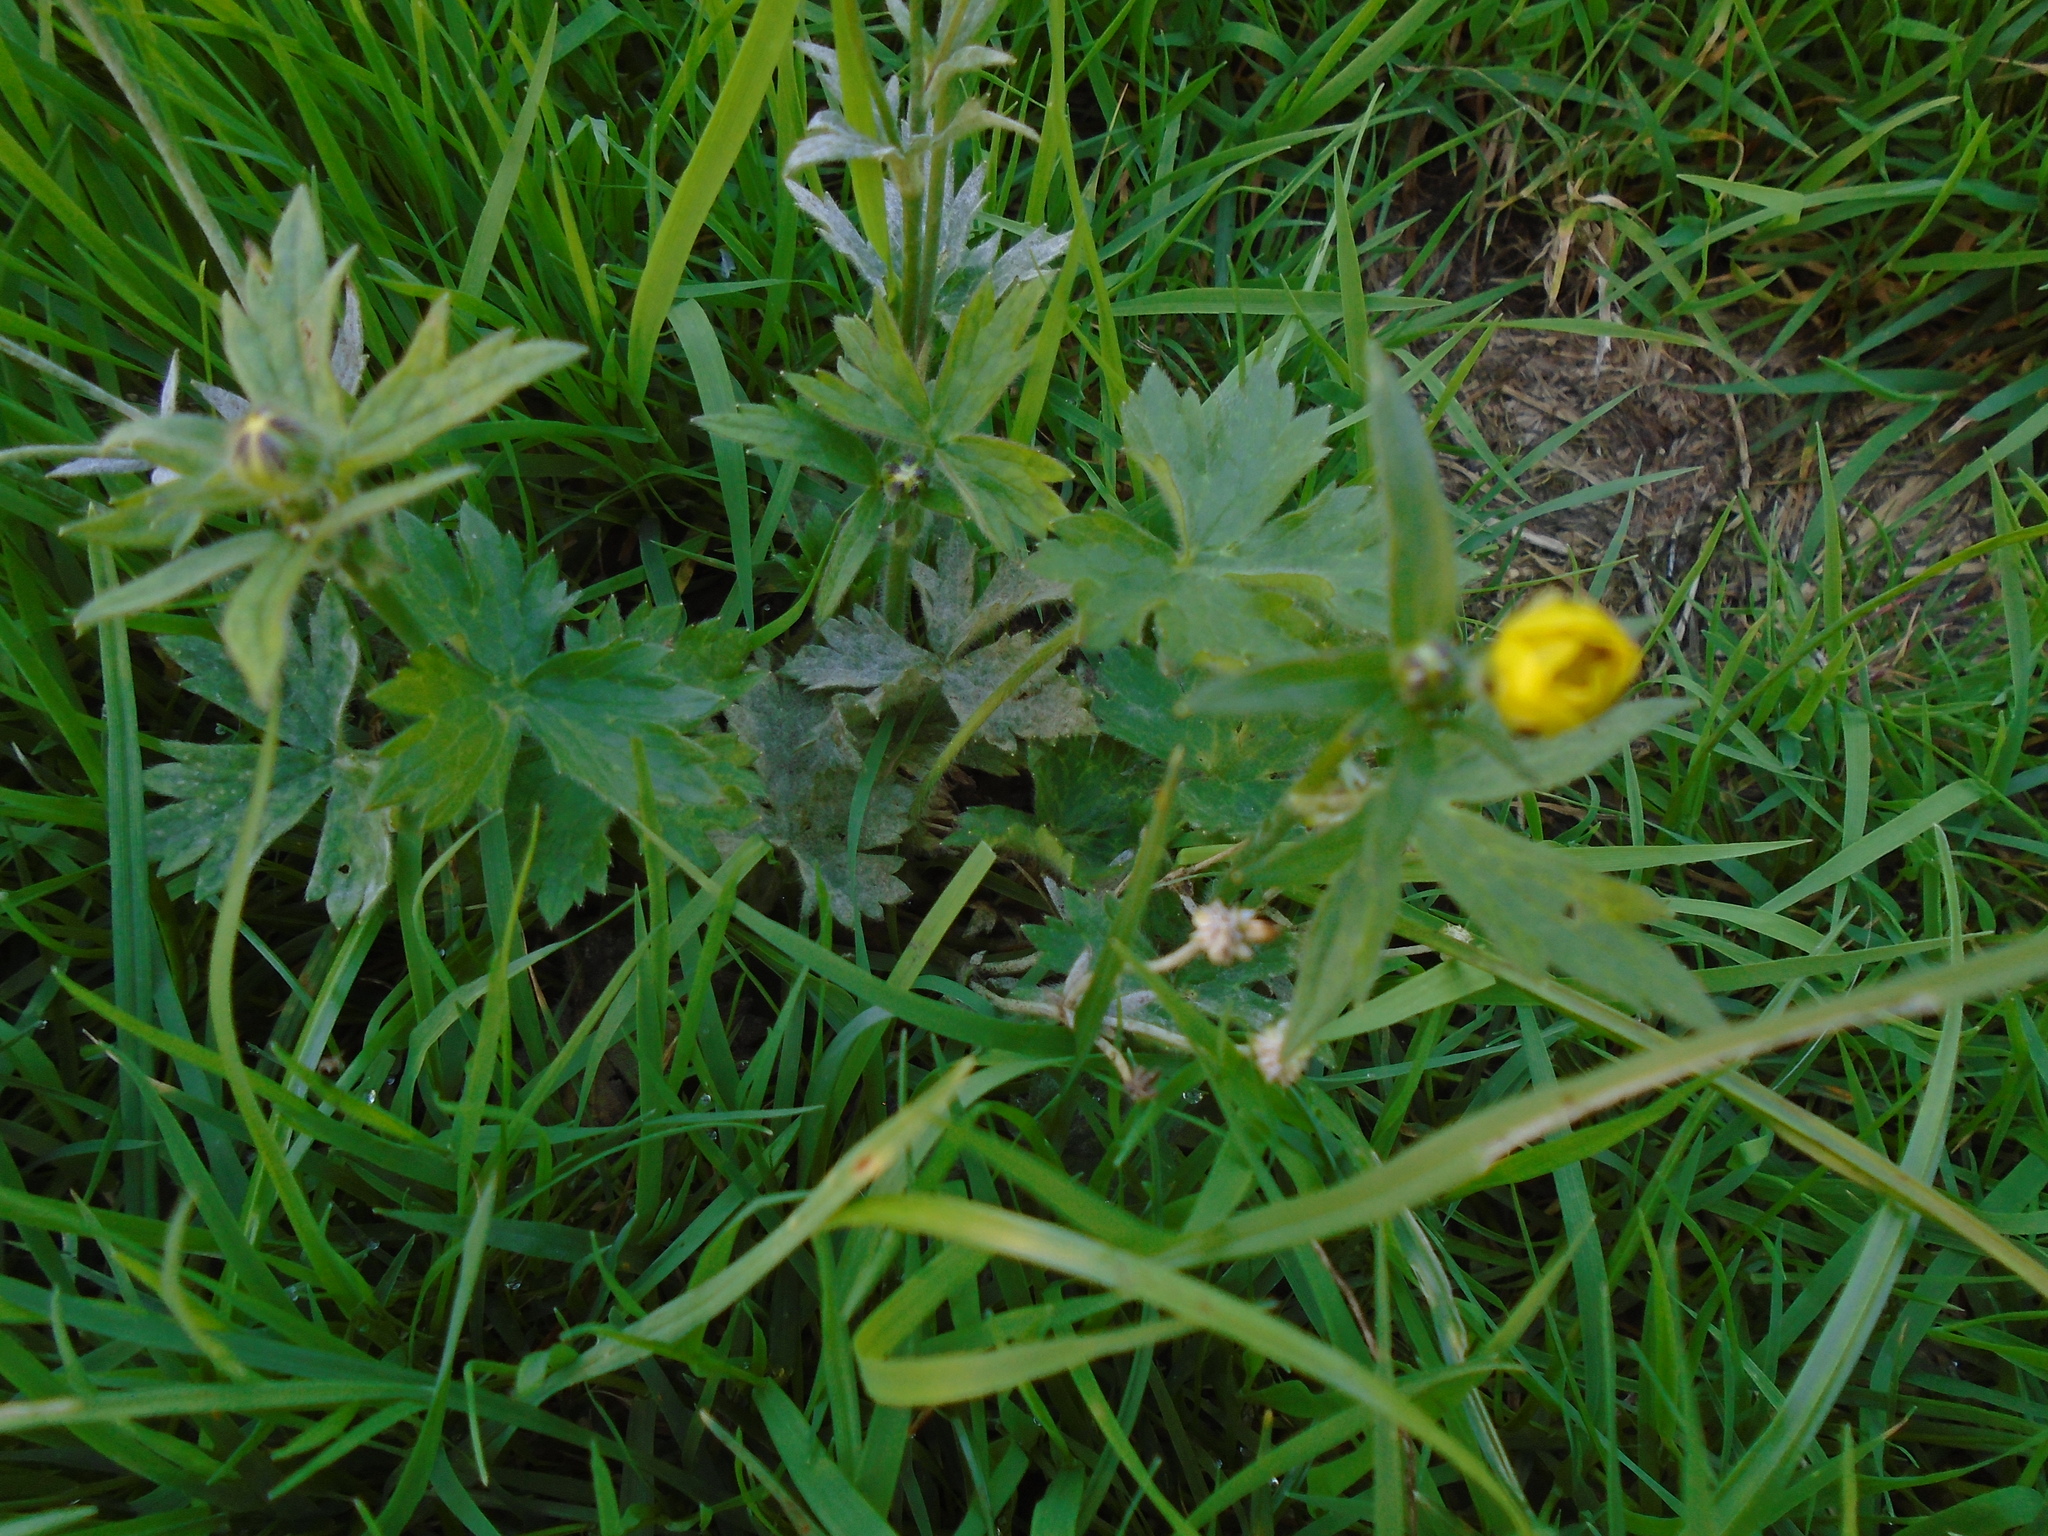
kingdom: Plantae
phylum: Tracheophyta
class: Magnoliopsida
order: Ranunculales
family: Ranunculaceae
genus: Ranunculus
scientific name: Ranunculus acris
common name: Meadow buttercup
